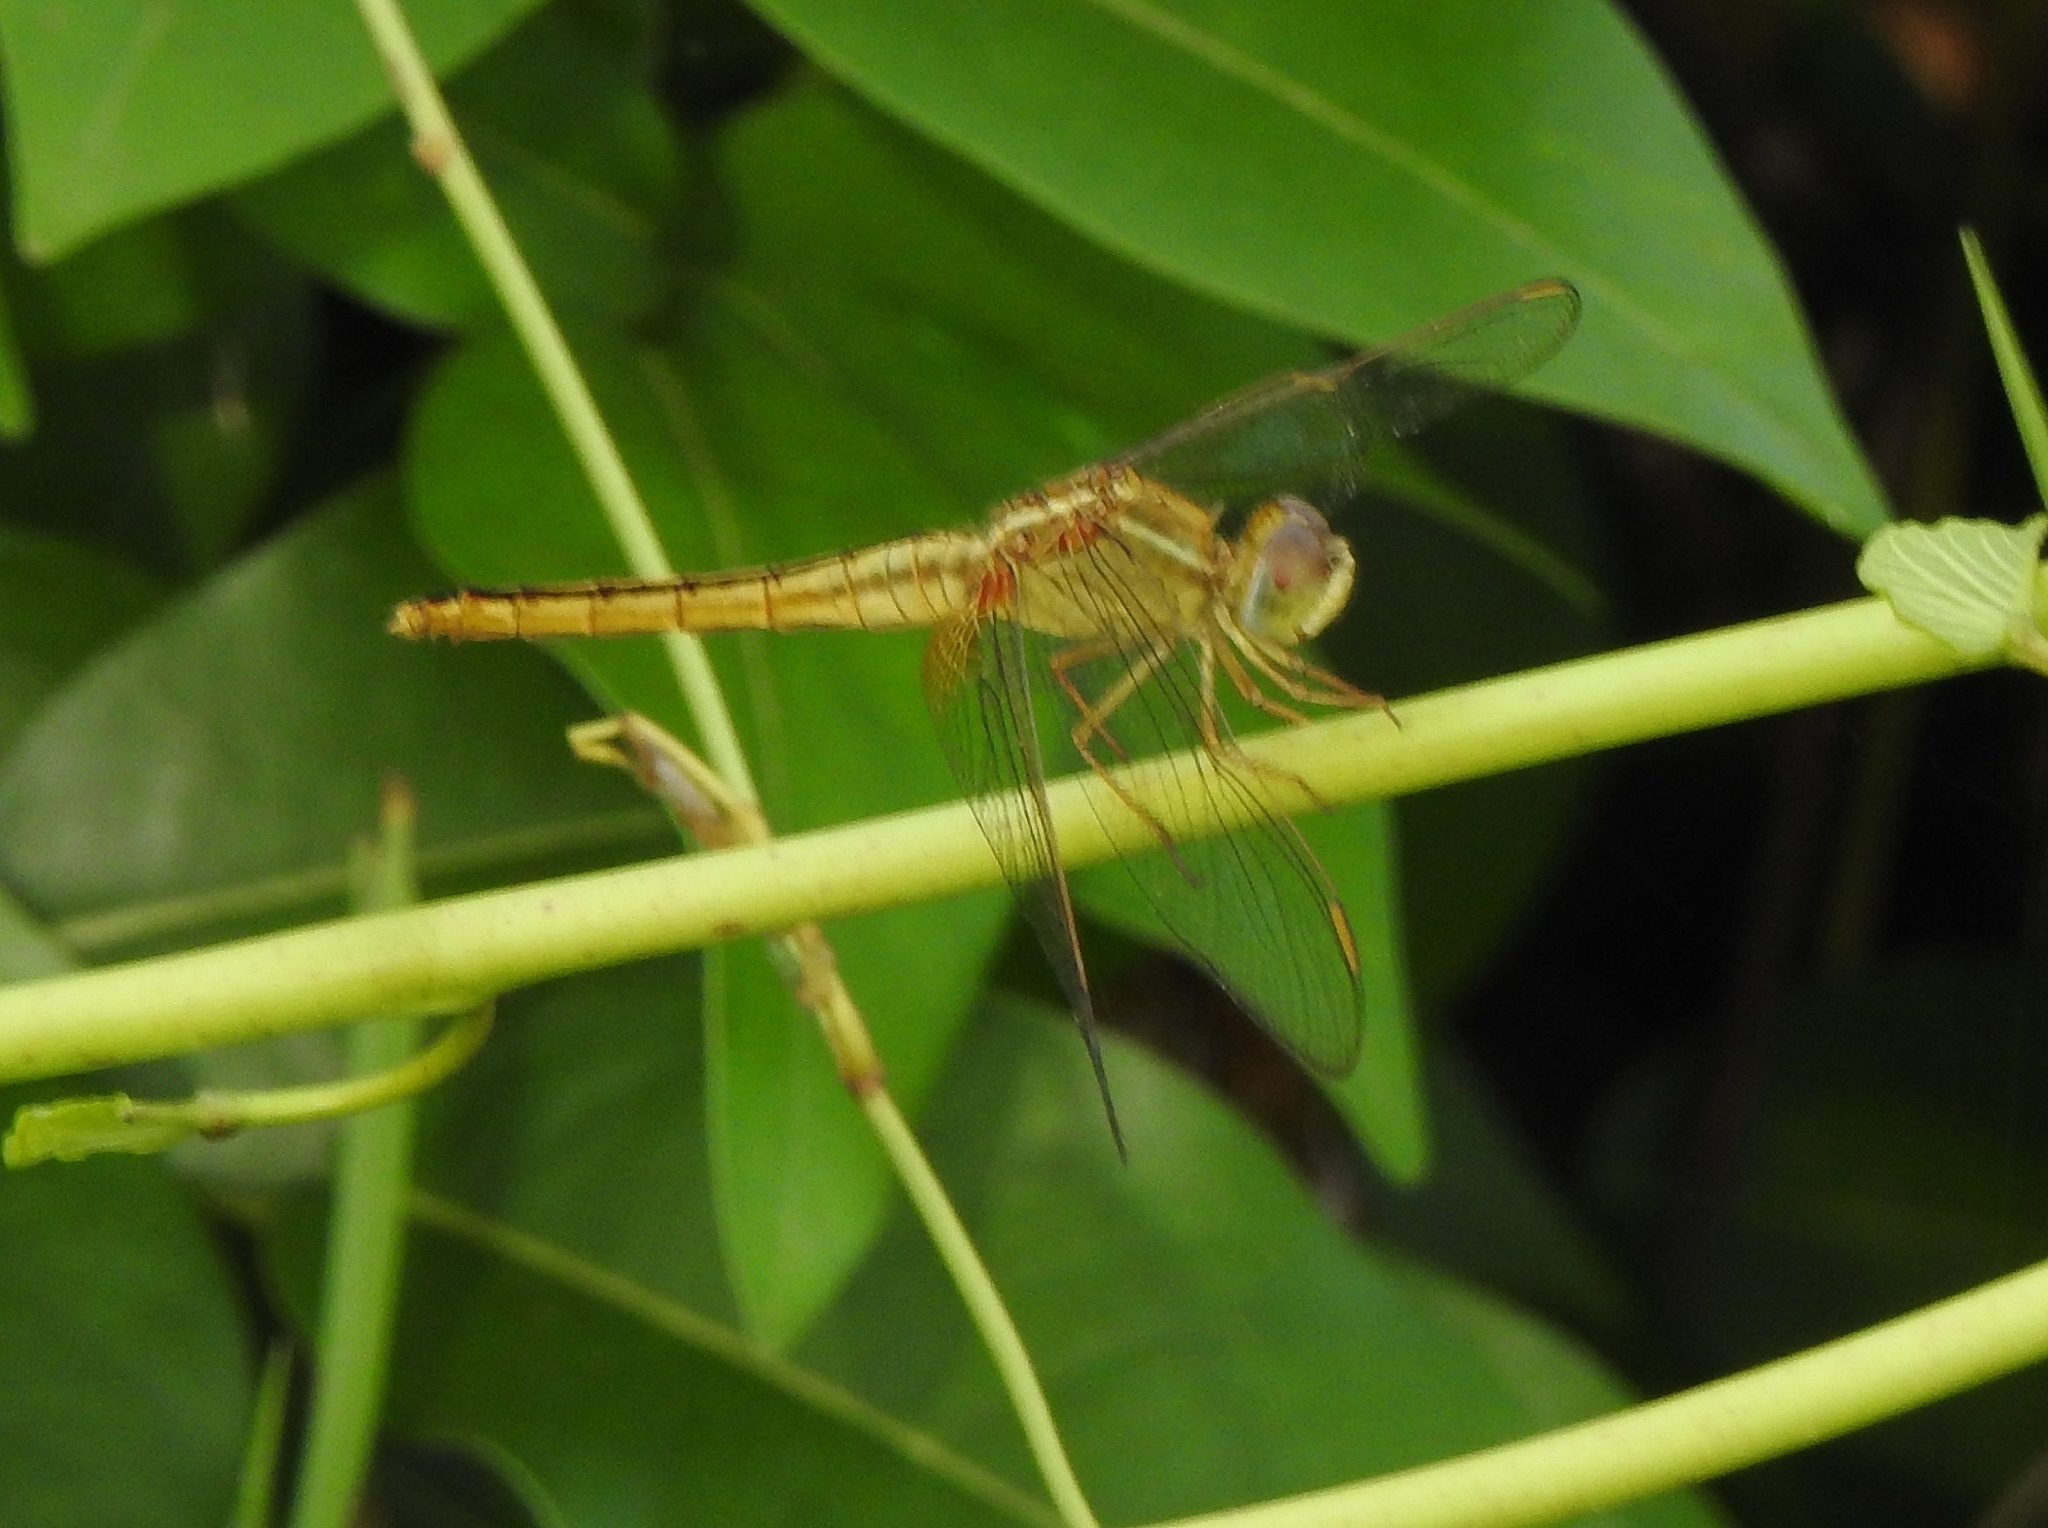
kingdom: Animalia
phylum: Arthropoda
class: Insecta
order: Odonata
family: Libellulidae
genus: Crocothemis
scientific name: Crocothemis servilia
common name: Scarlet skimmer
